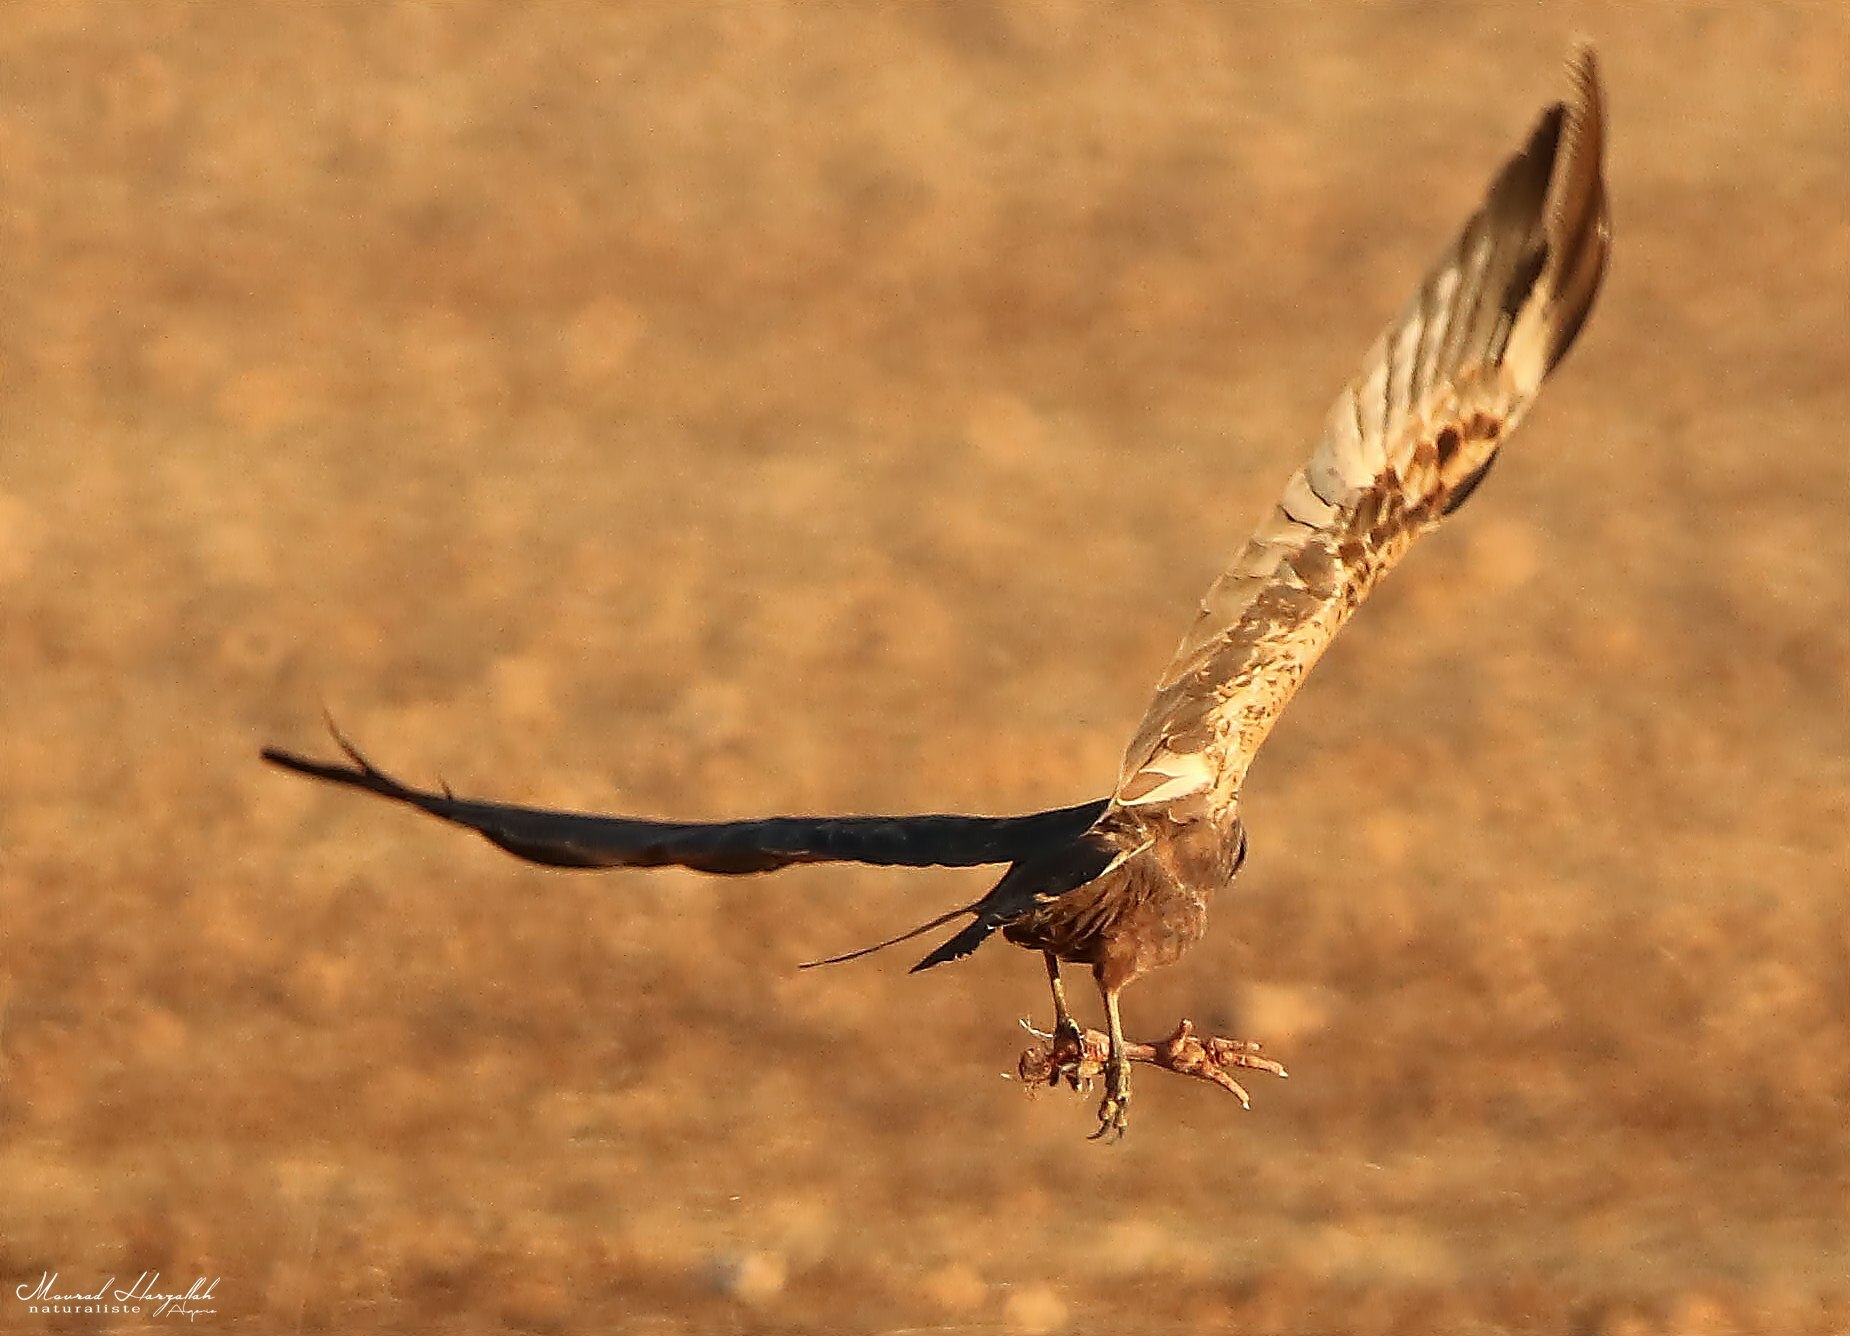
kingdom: Animalia
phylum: Chordata
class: Aves
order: Accipitriformes
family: Accipitridae
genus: Circus
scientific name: Circus aeruginosus
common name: Western marsh harrier
